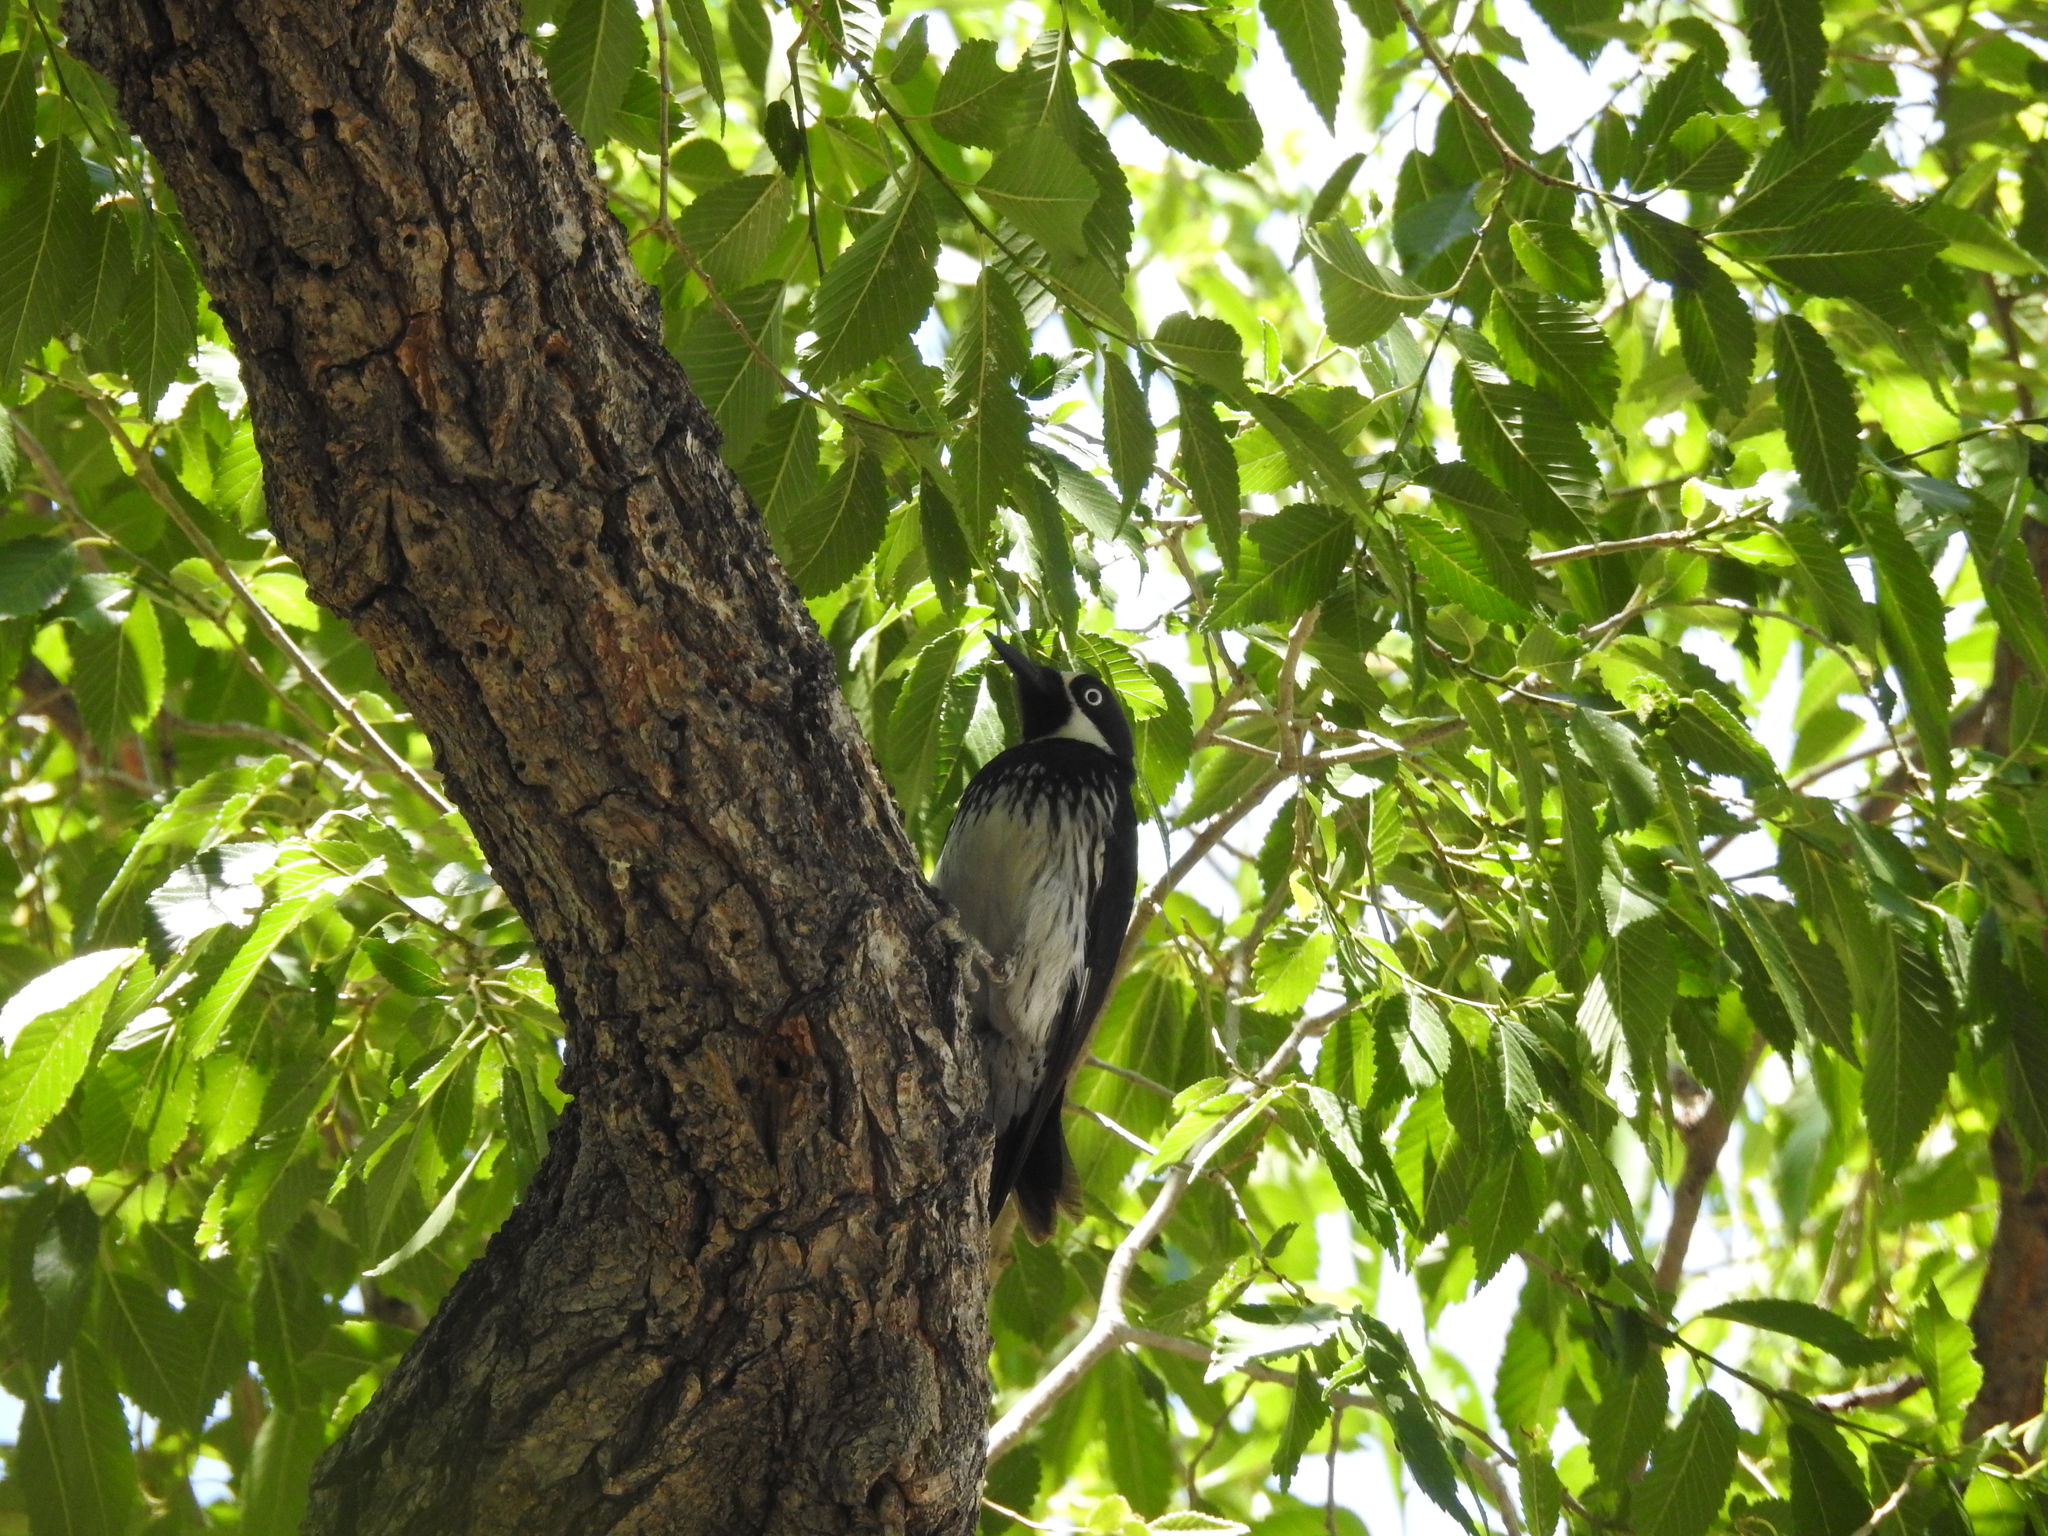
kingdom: Animalia
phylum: Chordata
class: Aves
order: Piciformes
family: Picidae
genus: Melanerpes
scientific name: Melanerpes formicivorus
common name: Acorn woodpecker
